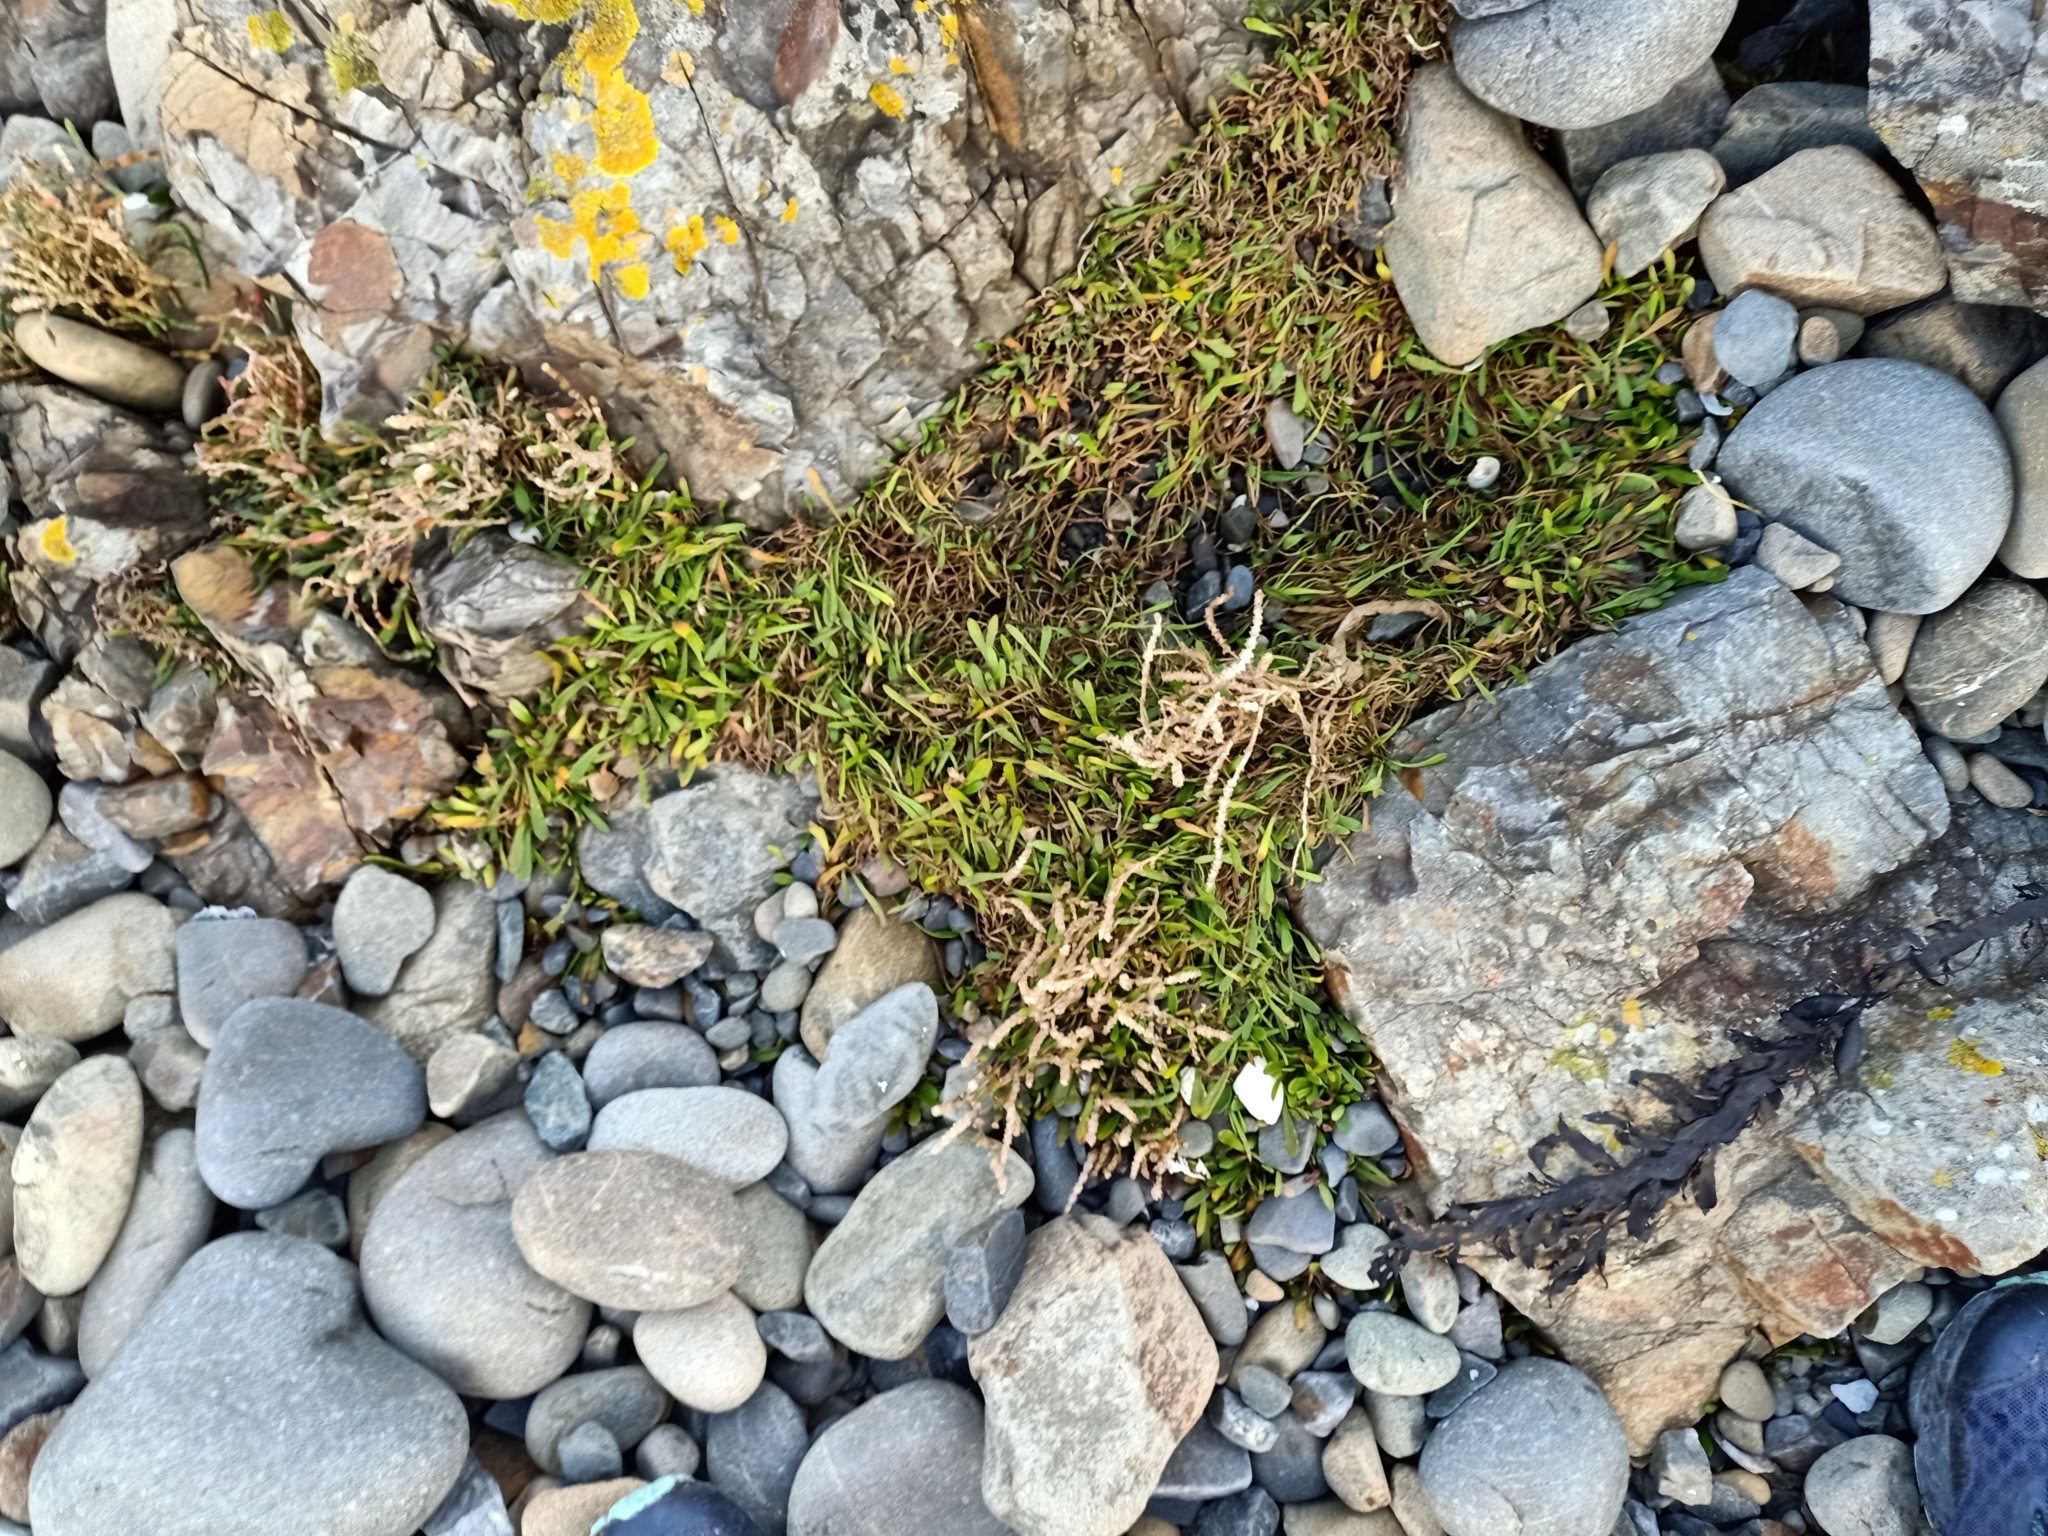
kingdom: Plantae
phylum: Tracheophyta
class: Magnoliopsida
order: Asterales
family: Goodeniaceae
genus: Goodenia
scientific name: Goodenia radicans
